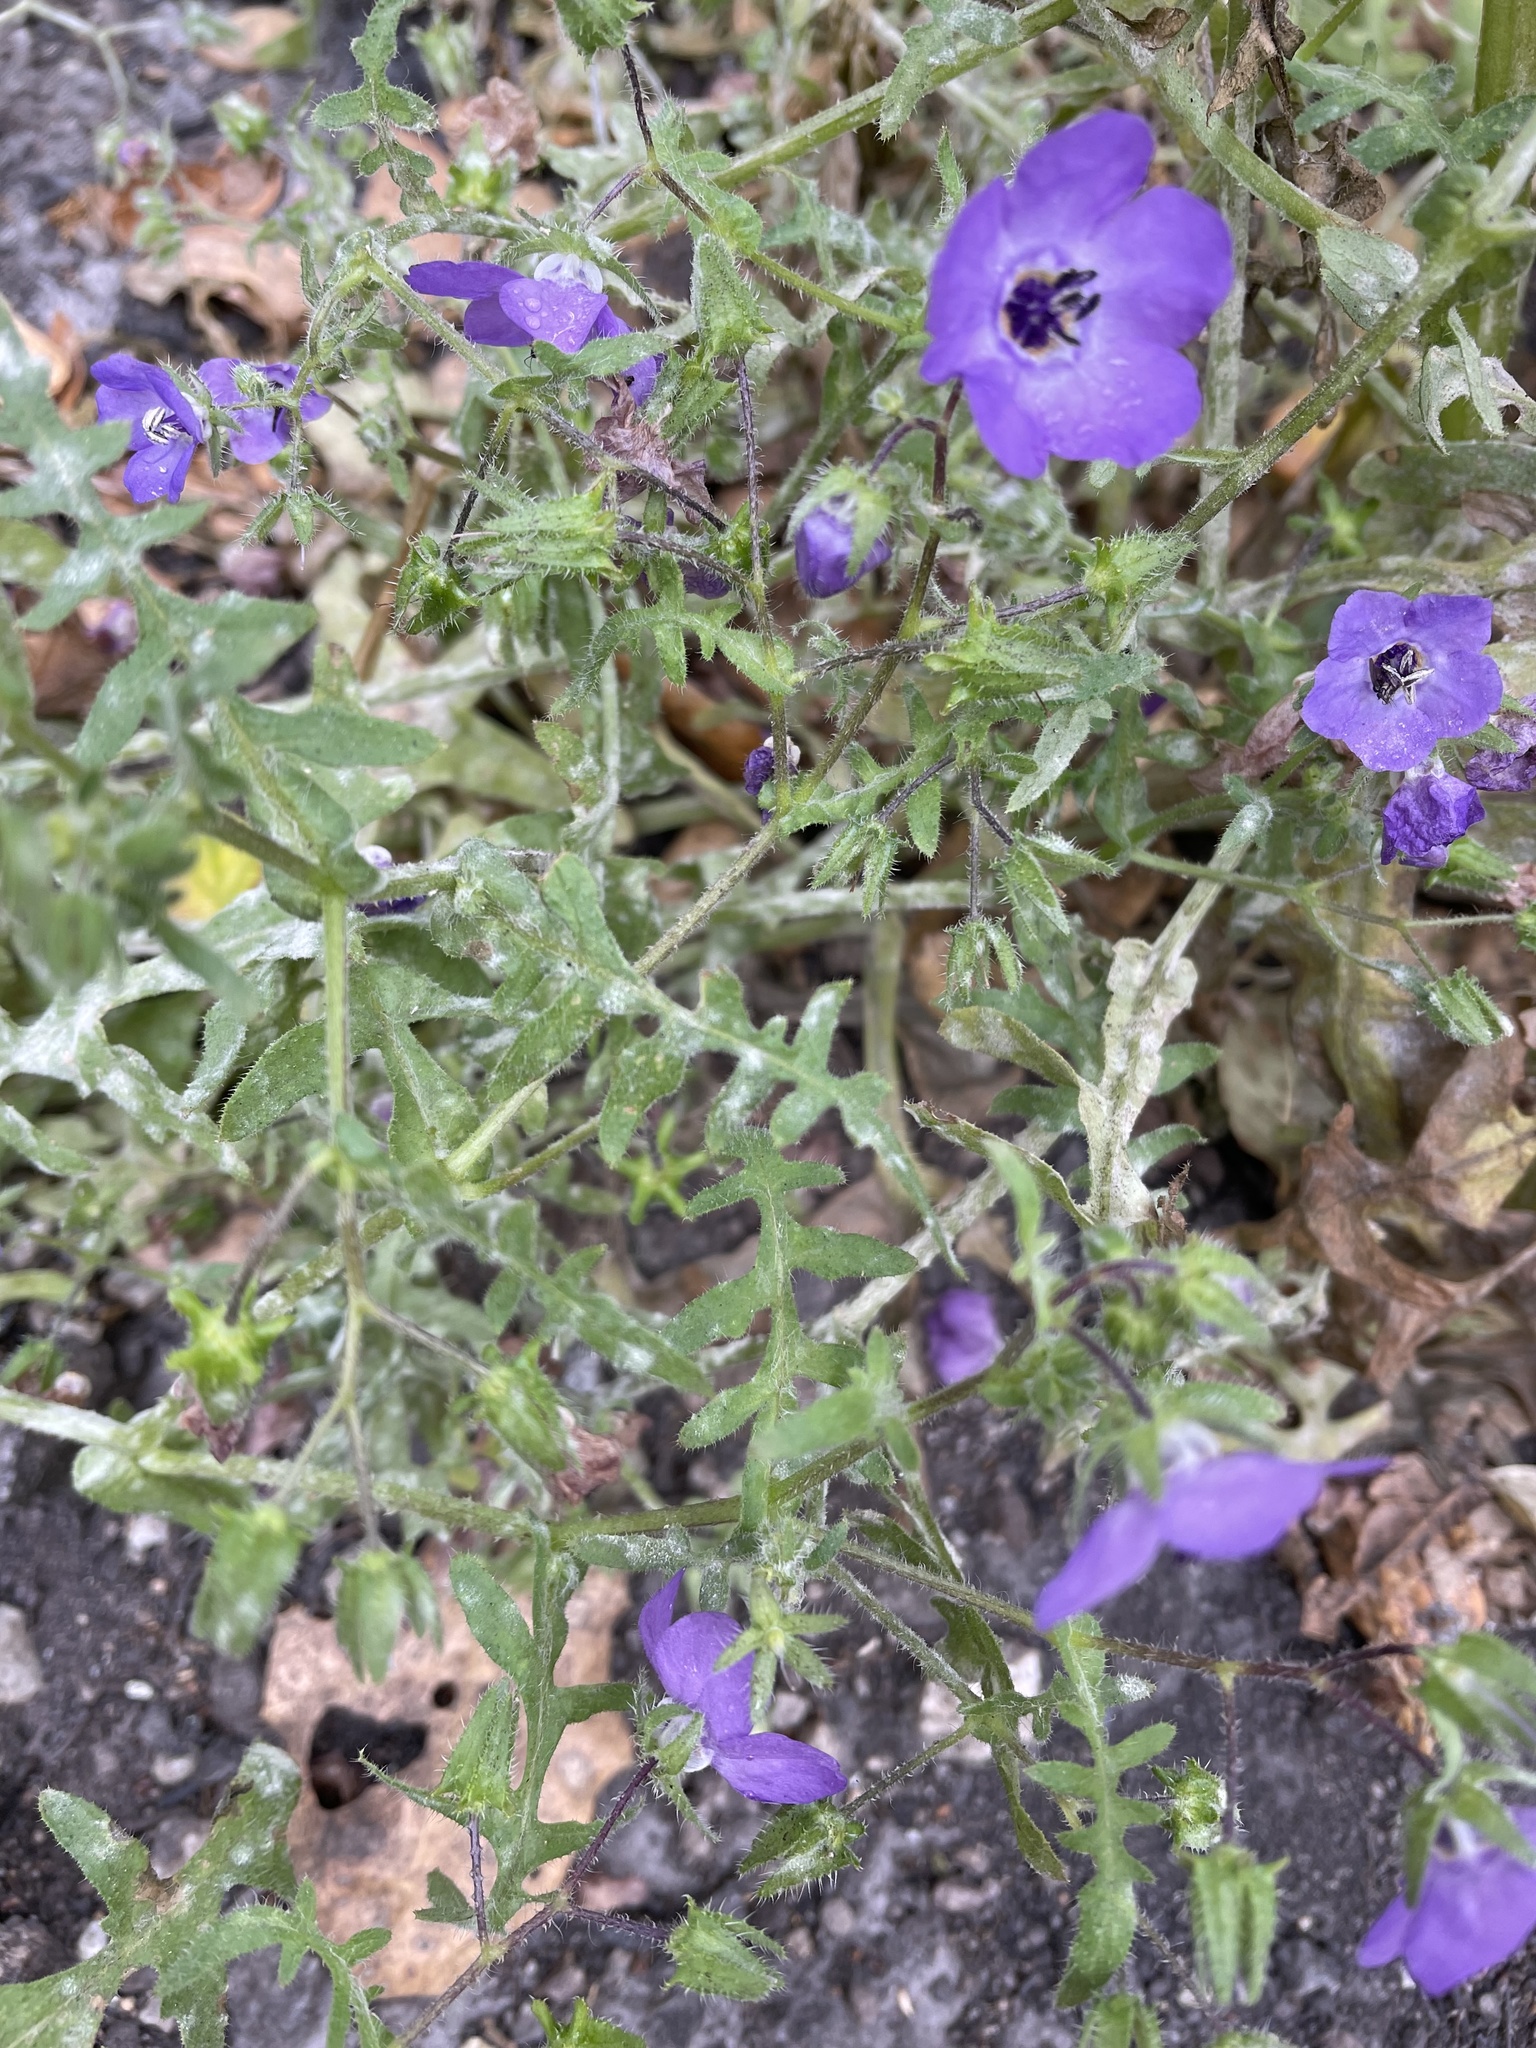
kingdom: Plantae
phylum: Tracheophyta
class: Magnoliopsida
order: Boraginales
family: Hydrophyllaceae
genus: Pholistoma
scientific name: Pholistoma auritum
